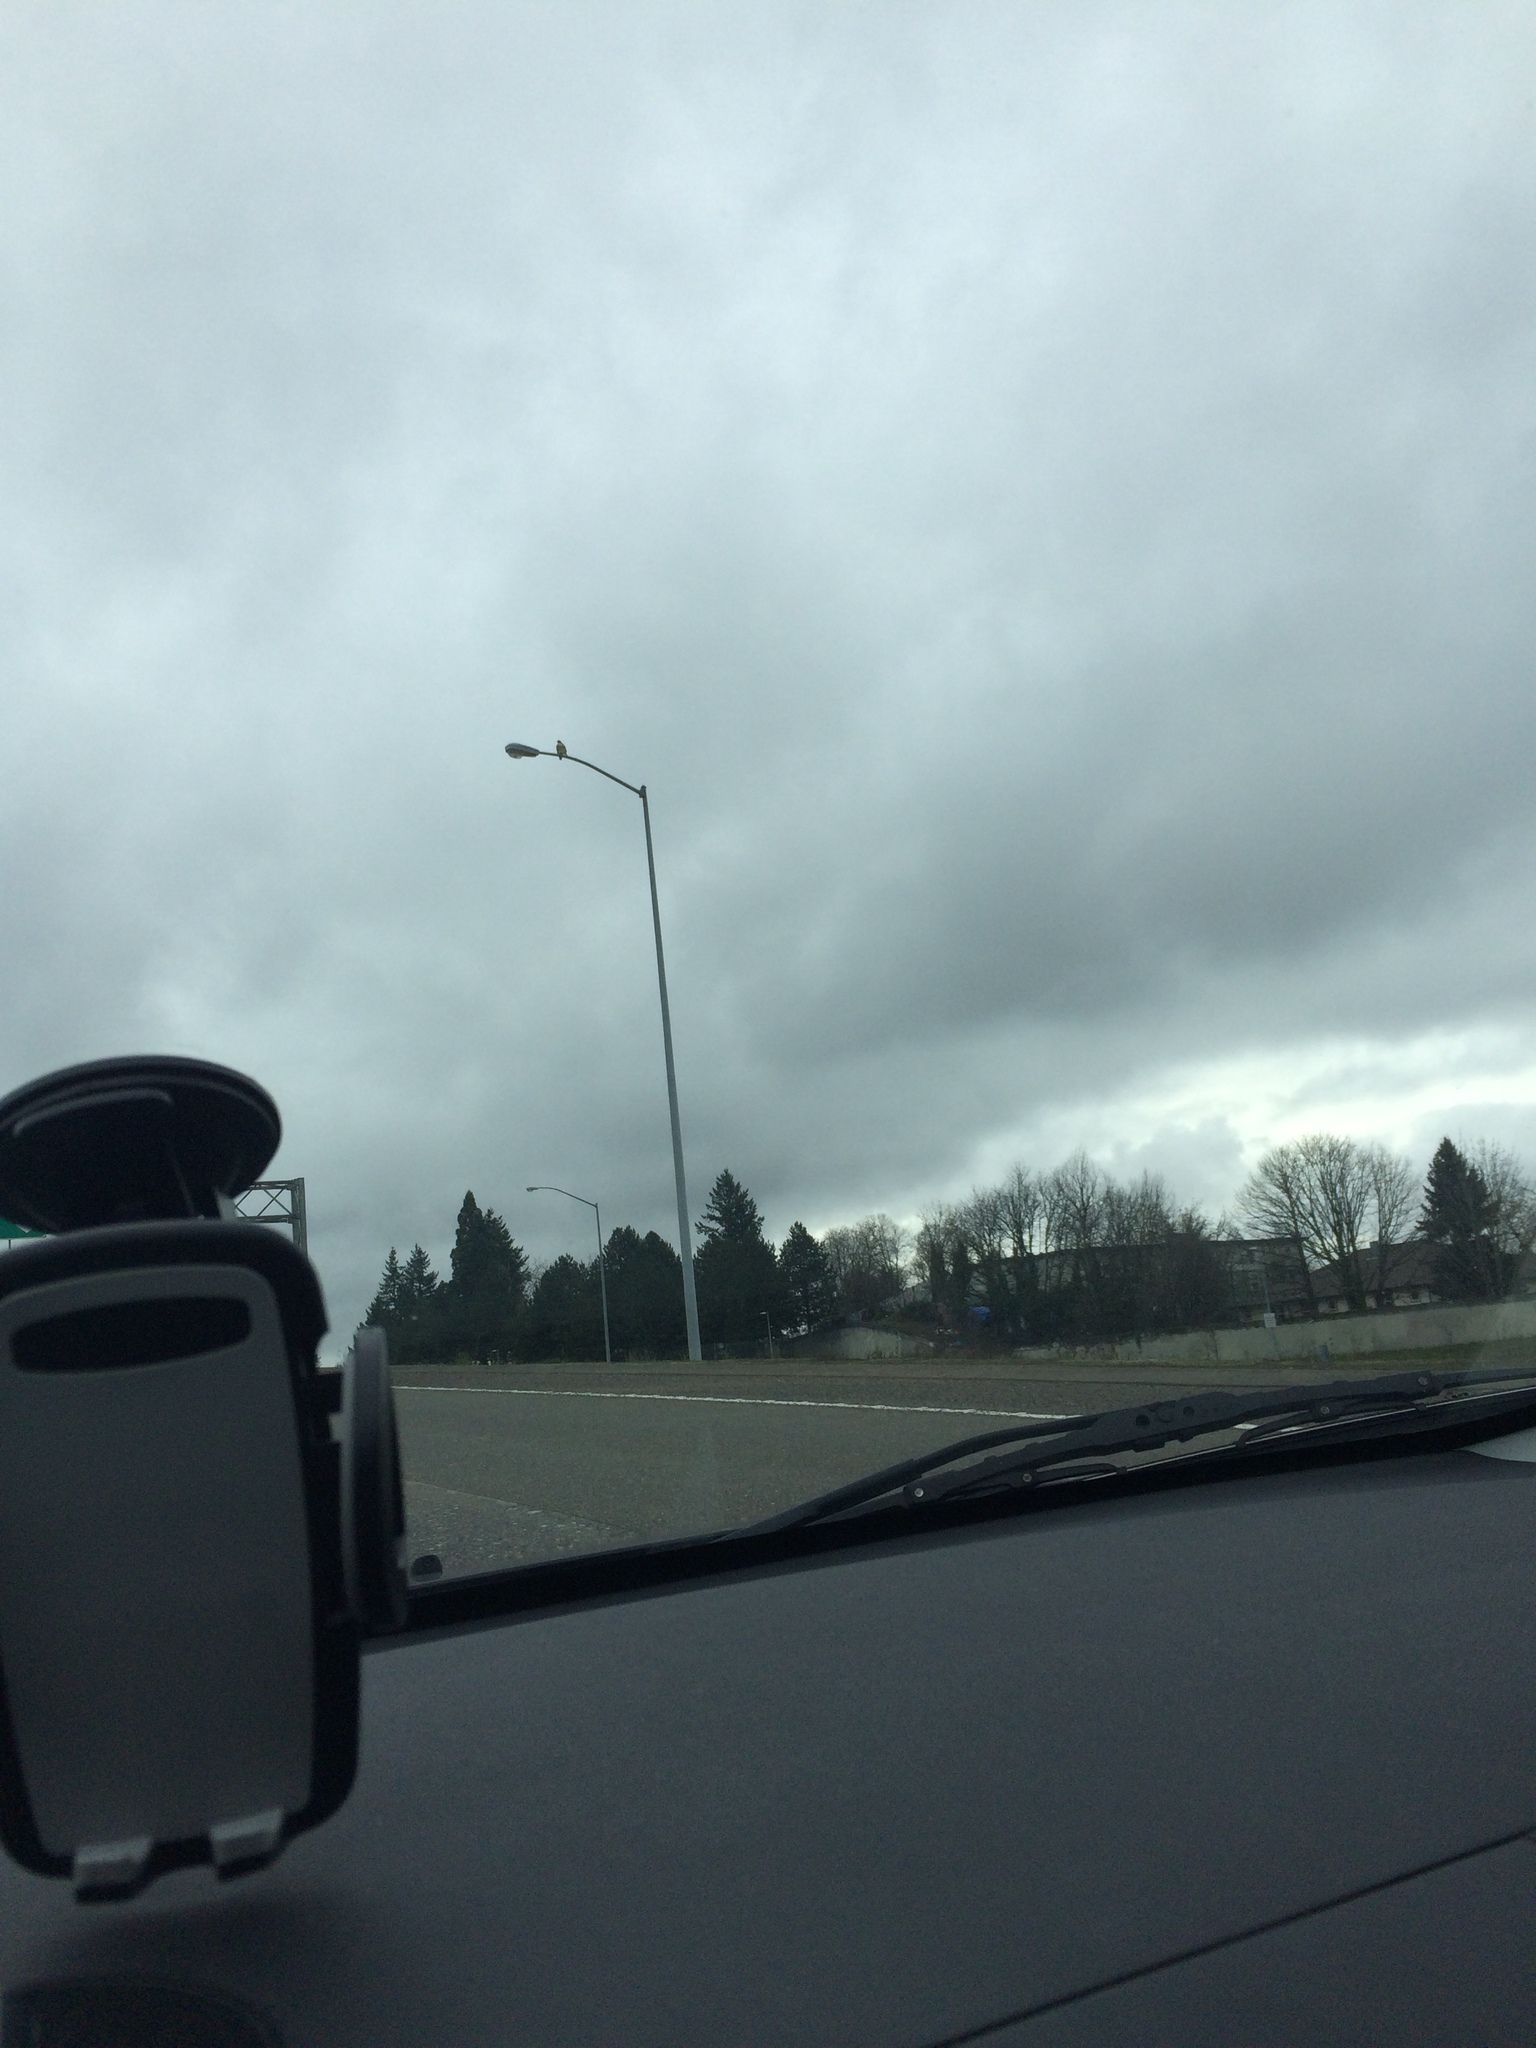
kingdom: Animalia
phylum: Chordata
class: Aves
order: Accipitriformes
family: Accipitridae
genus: Buteo
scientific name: Buteo jamaicensis
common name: Red-tailed hawk
